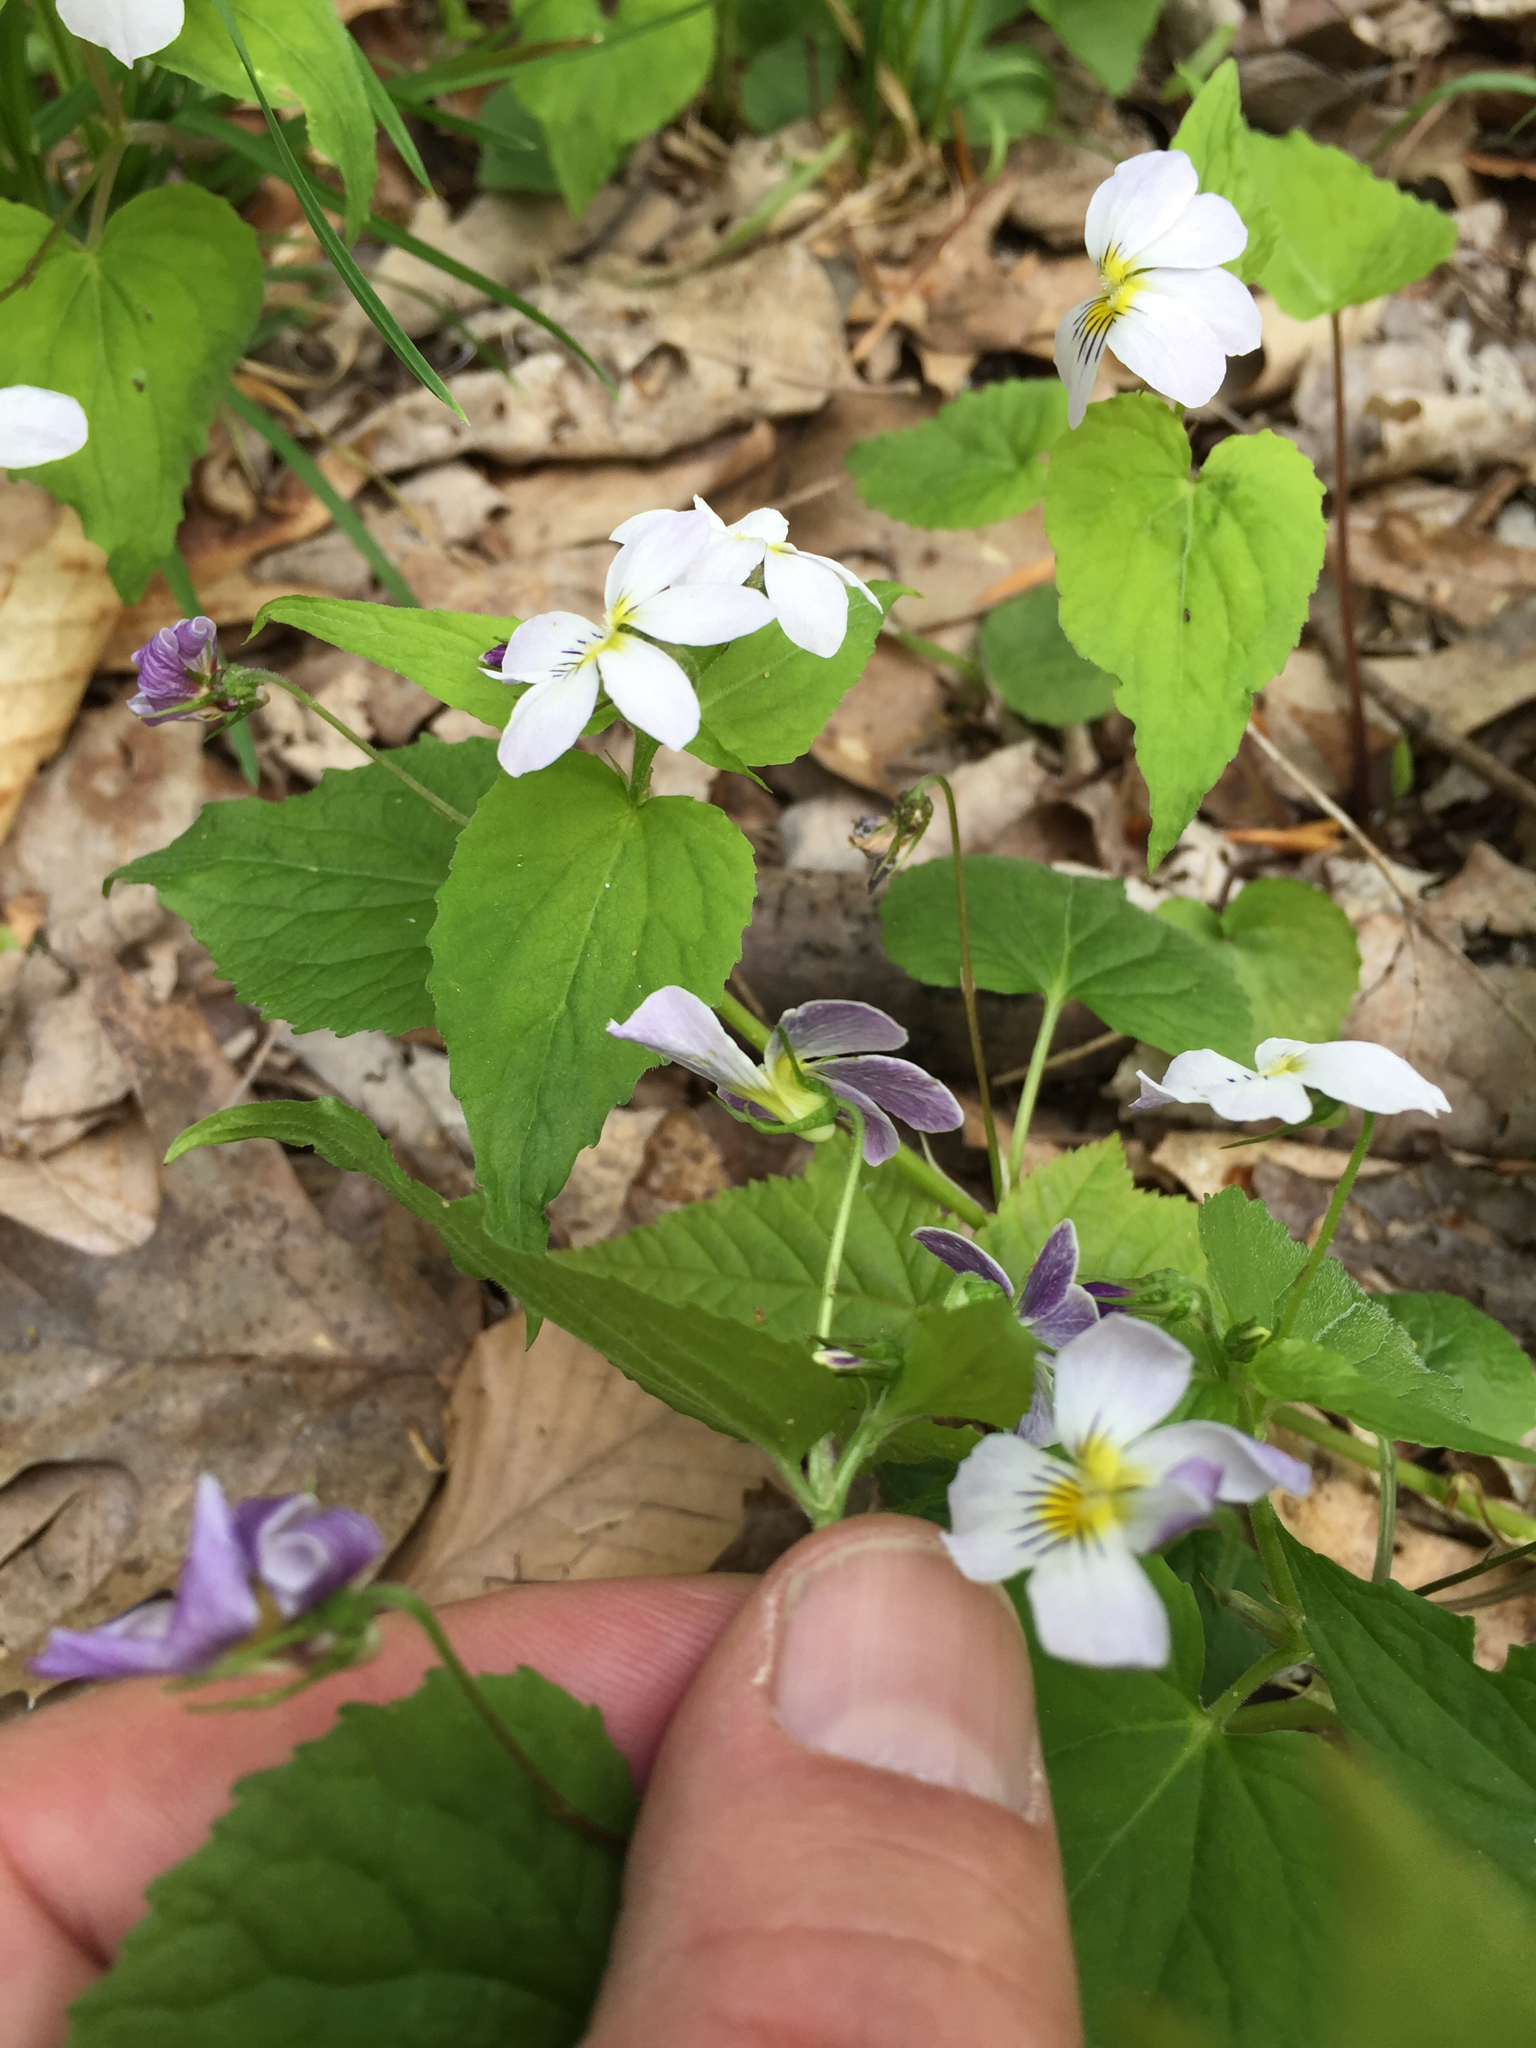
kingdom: Plantae
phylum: Tracheophyta
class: Magnoliopsida
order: Malpighiales
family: Violaceae
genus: Viola
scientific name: Viola canadensis
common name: Canada violet
